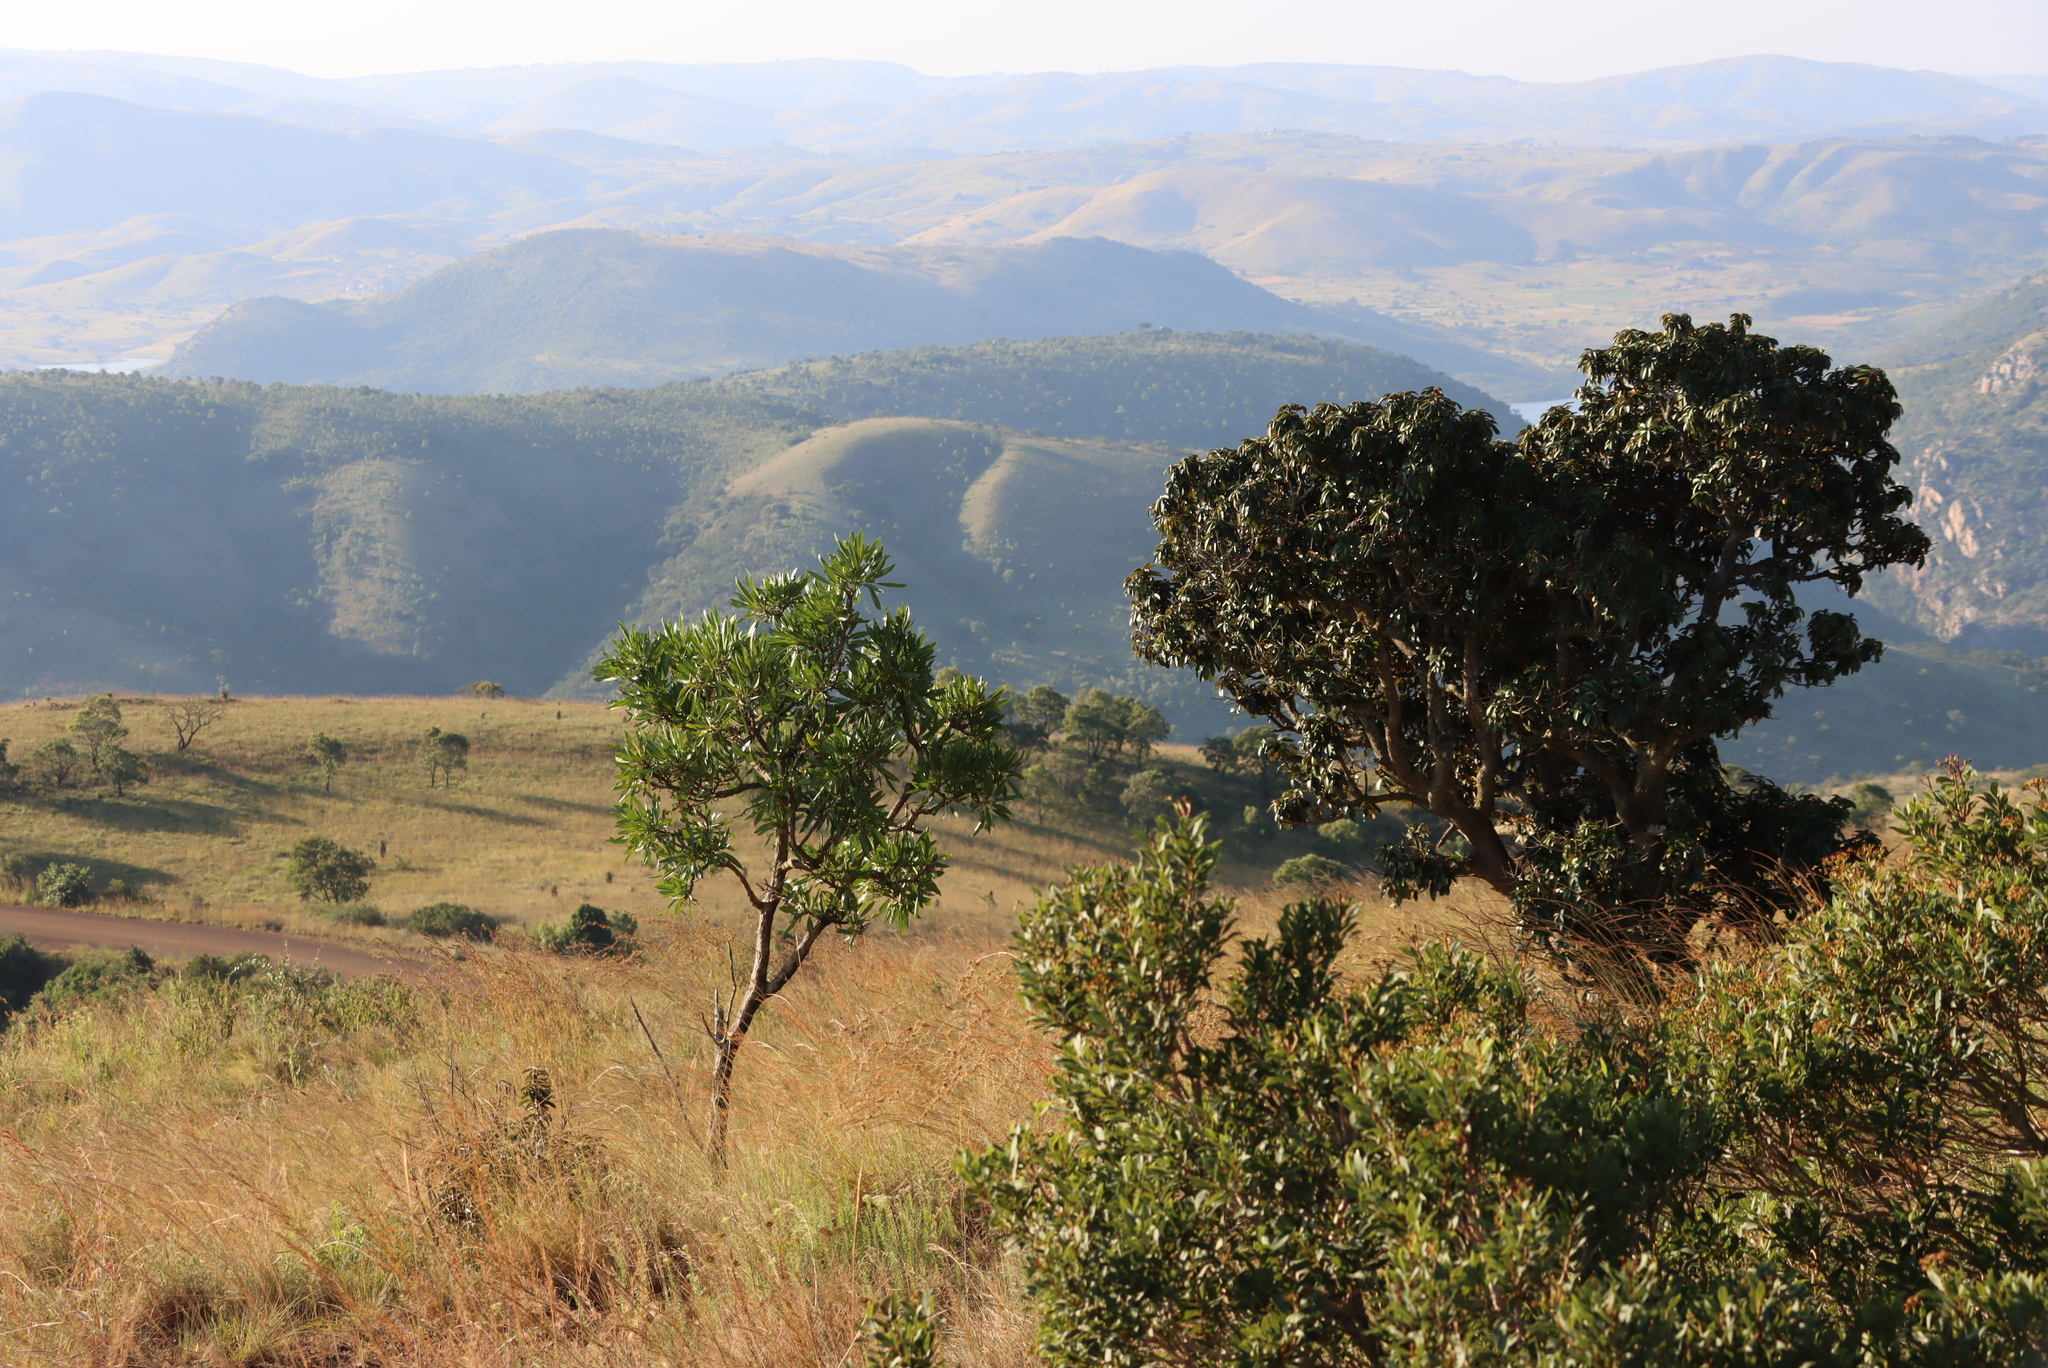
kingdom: Plantae
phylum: Tracheophyta
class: Magnoliopsida
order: Gentianales
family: Rubiaceae
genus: Pavetta
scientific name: Pavetta edentula
